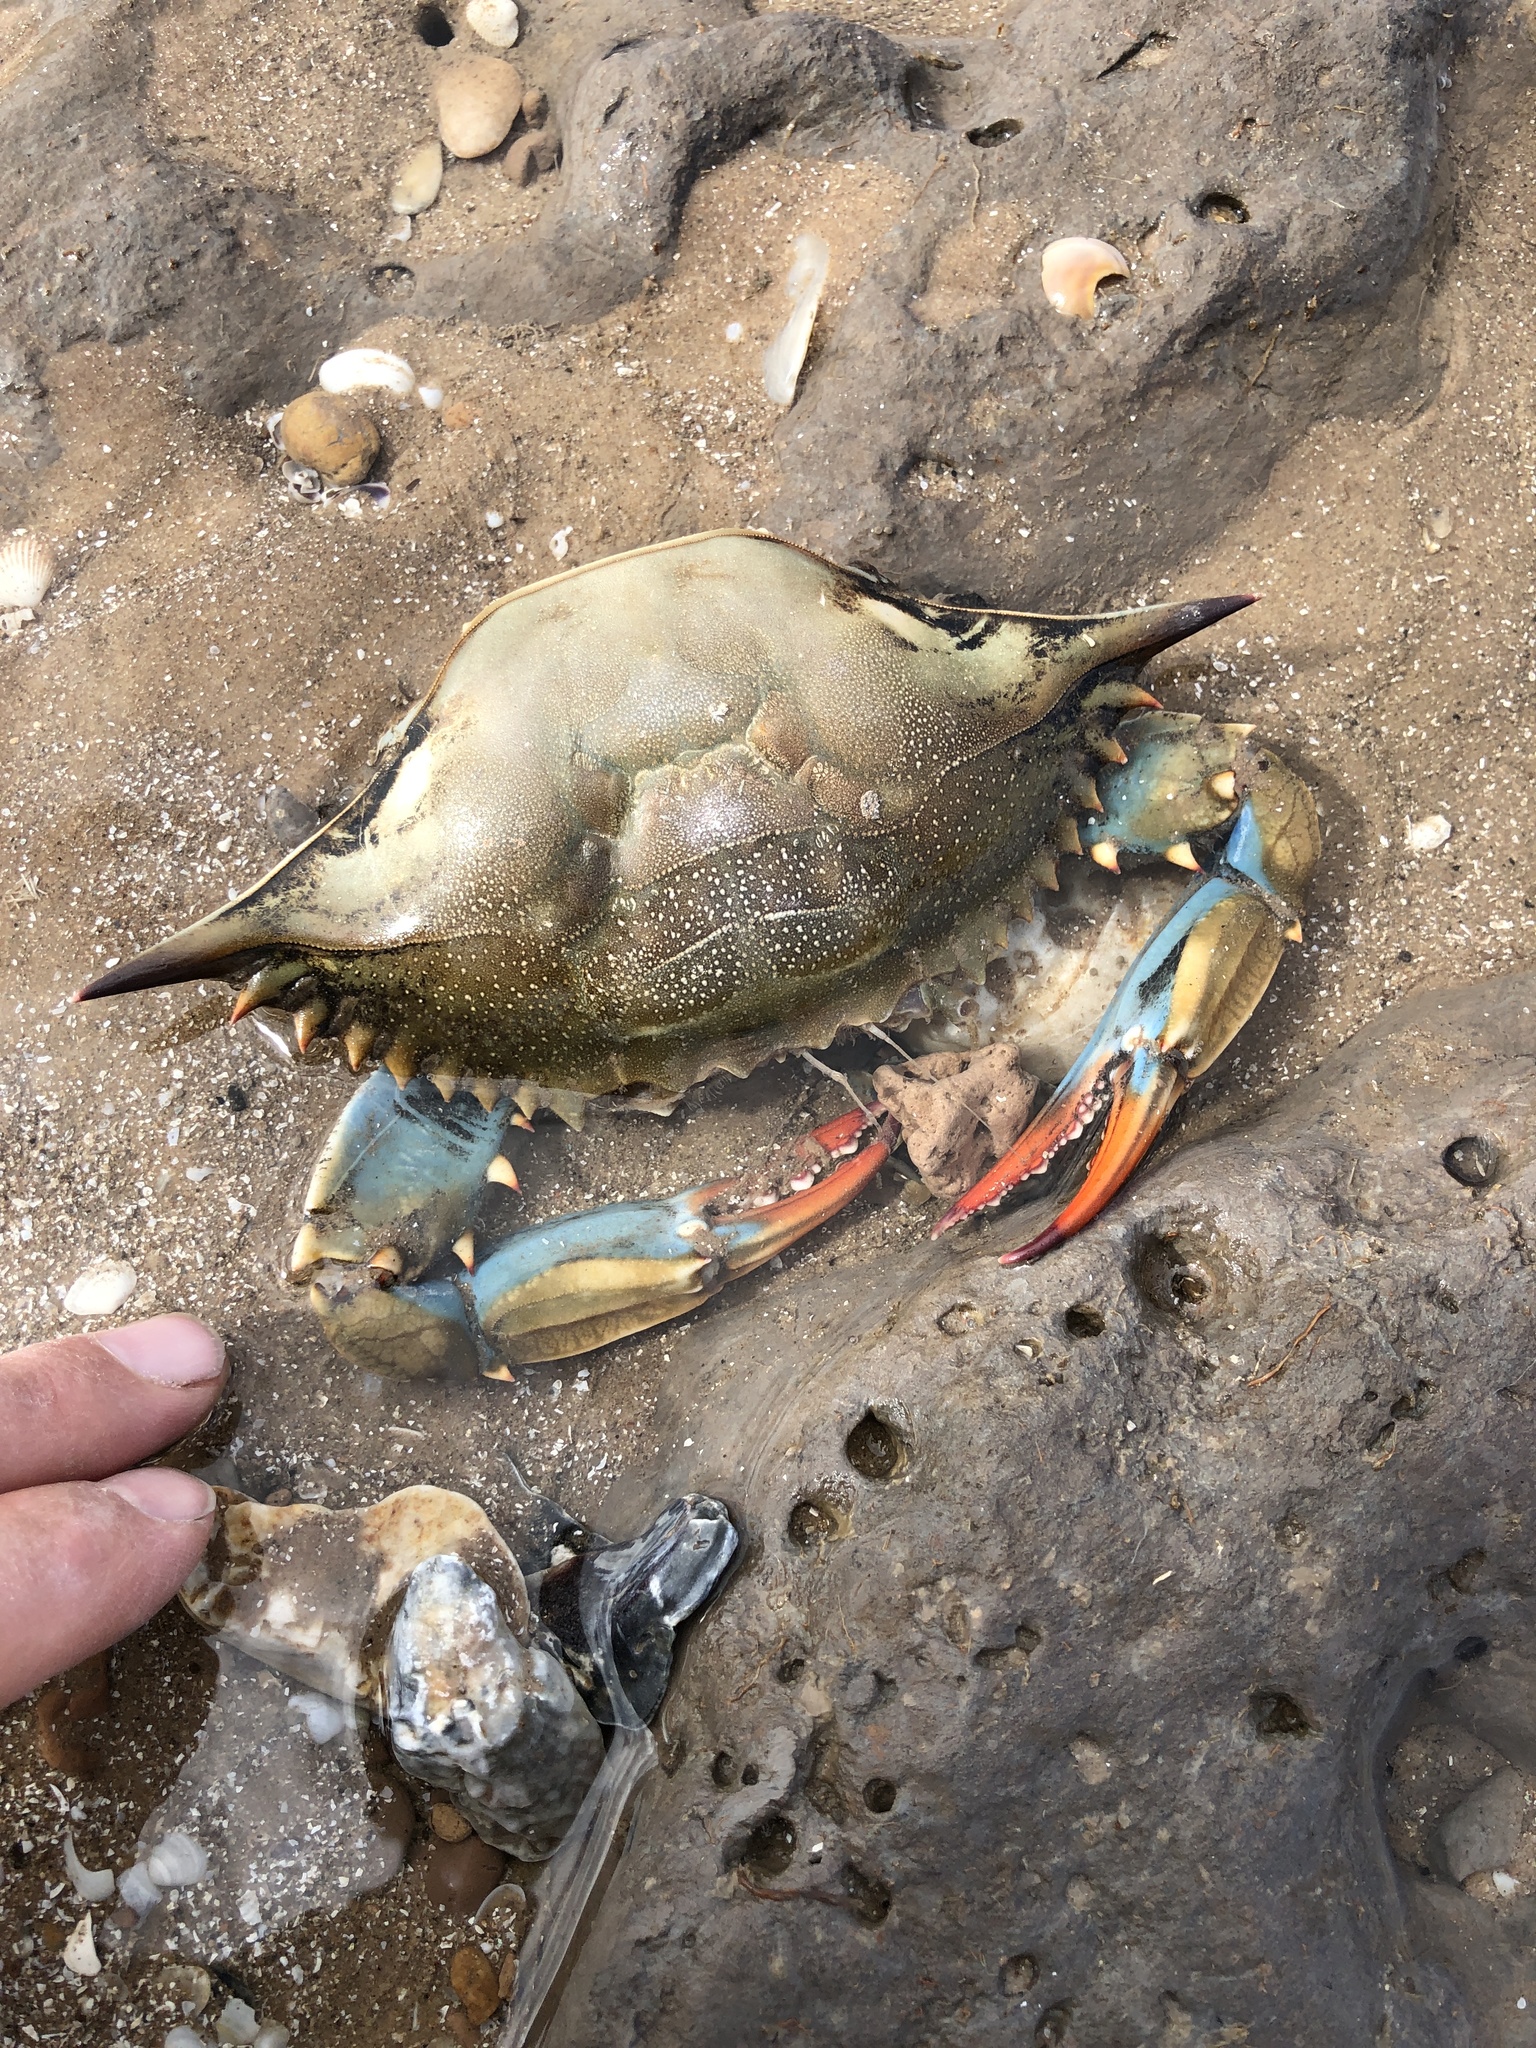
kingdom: Animalia
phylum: Arthropoda
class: Malacostraca
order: Decapoda
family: Portunidae
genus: Callinectes
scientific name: Callinectes sapidus
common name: Blue crab
